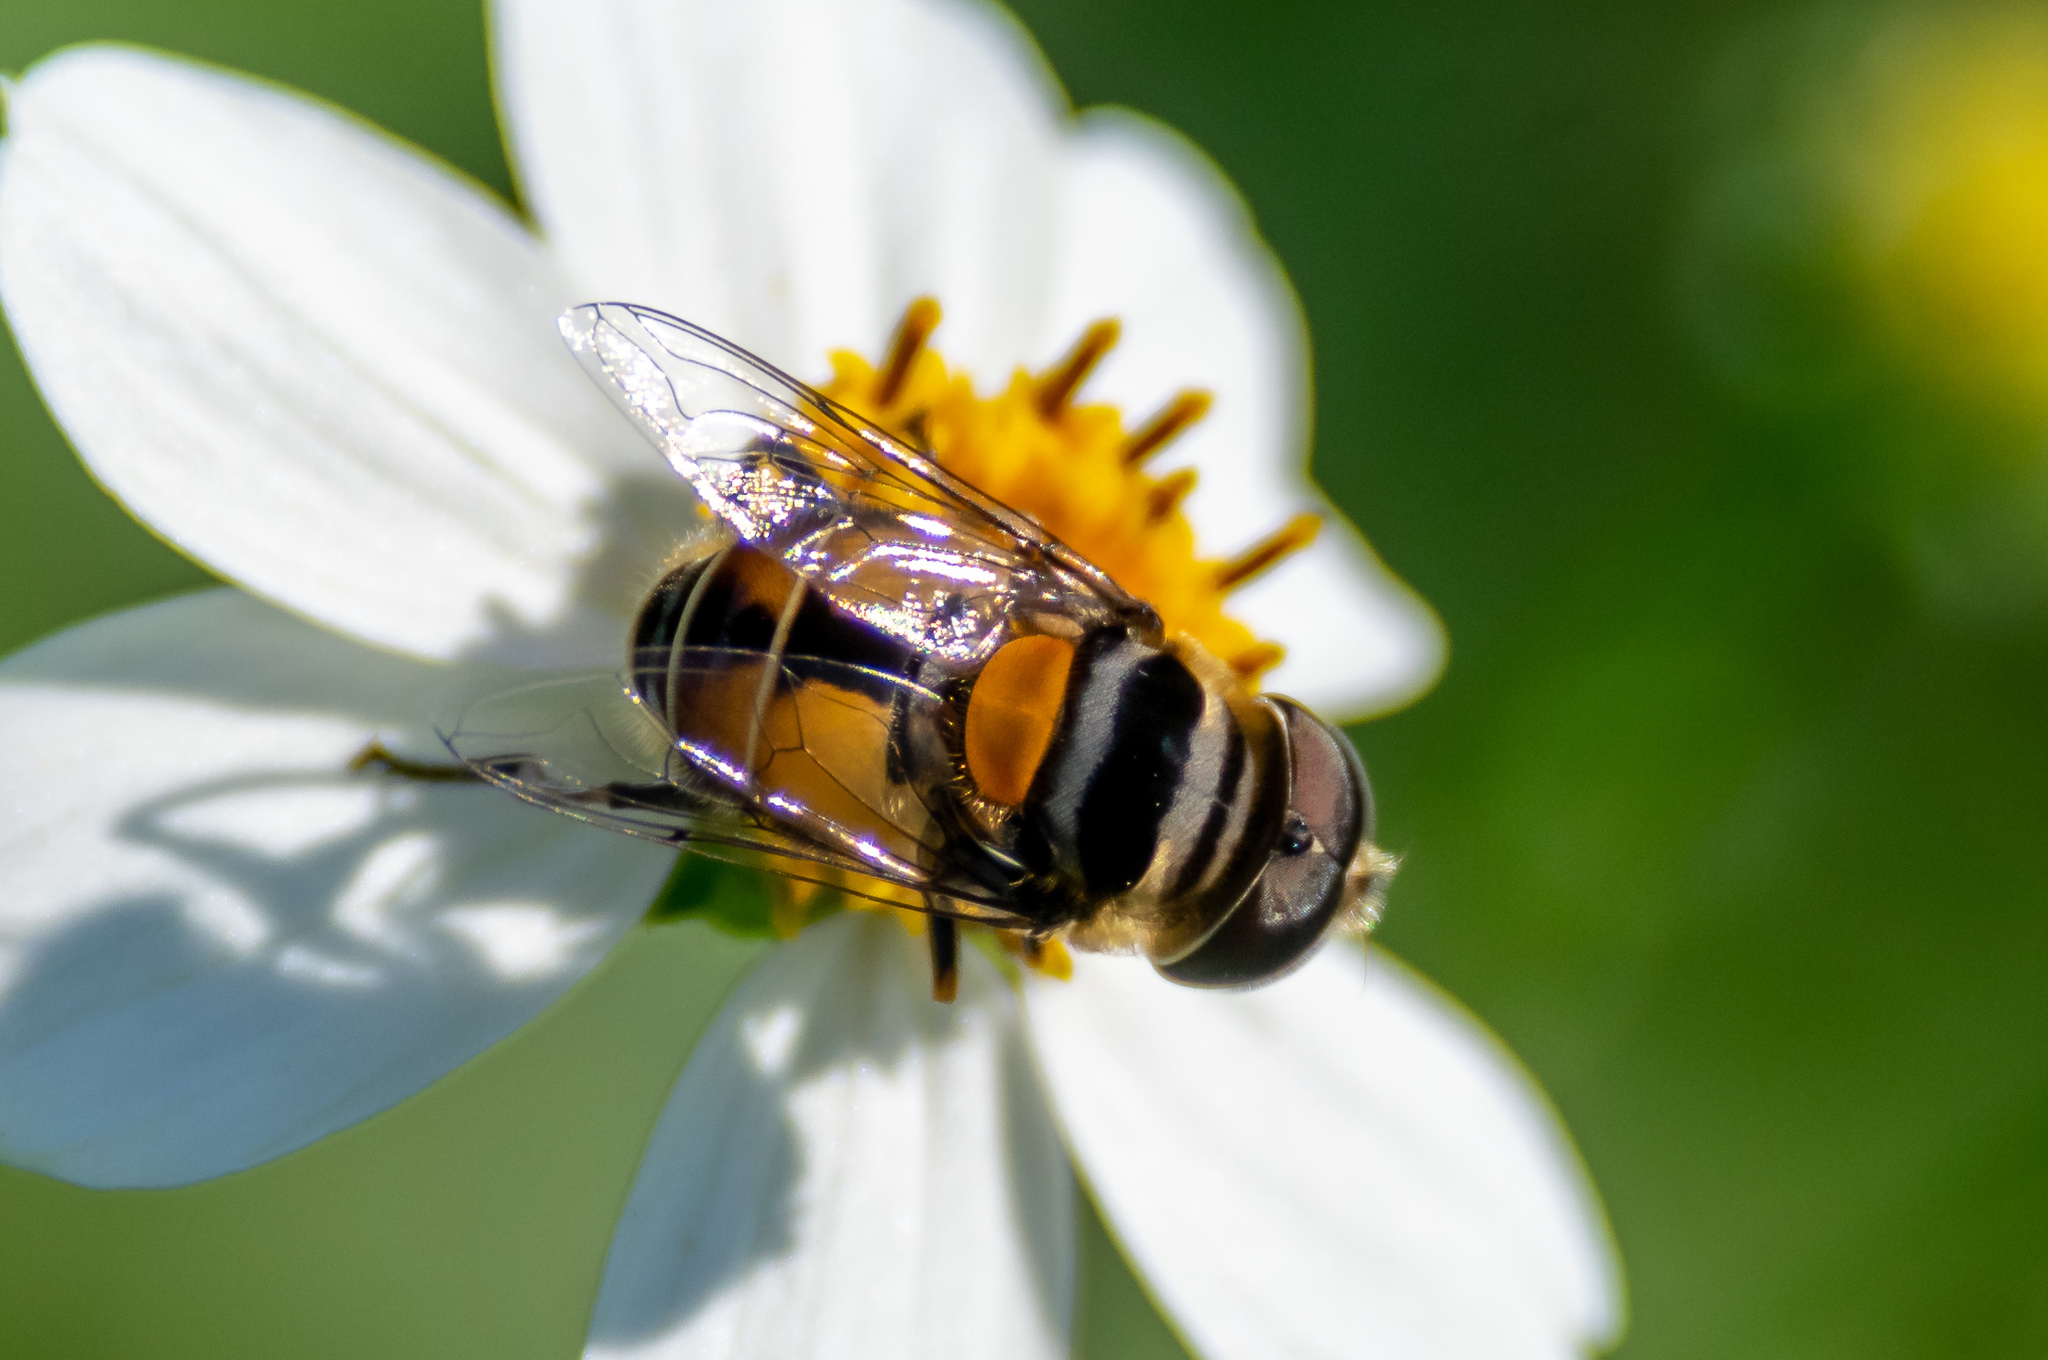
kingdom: Animalia
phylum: Arthropoda
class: Insecta
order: Diptera
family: Syrphidae
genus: Palpada
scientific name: Palpada agrorum
